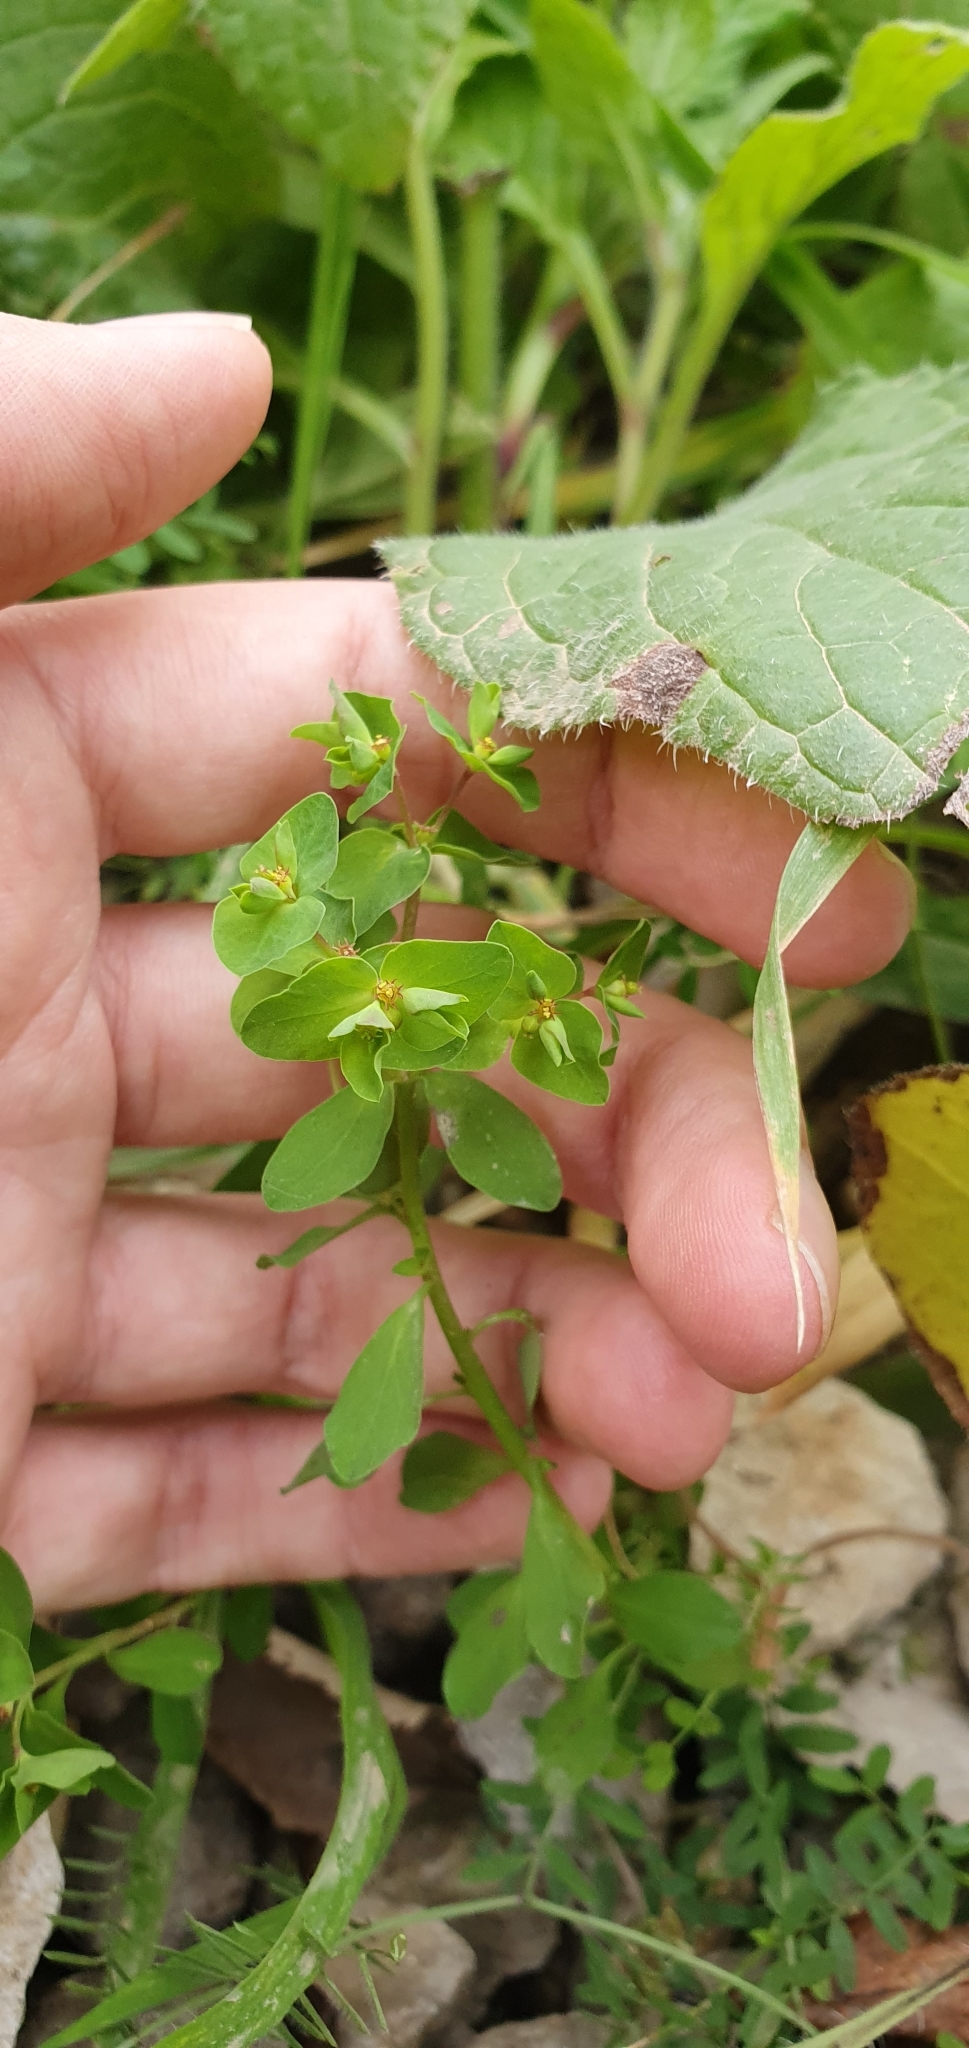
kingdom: Plantae
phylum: Tracheophyta
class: Magnoliopsida
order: Malpighiales
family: Euphorbiaceae
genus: Euphorbia
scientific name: Euphorbia peplus
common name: Petty spurge
